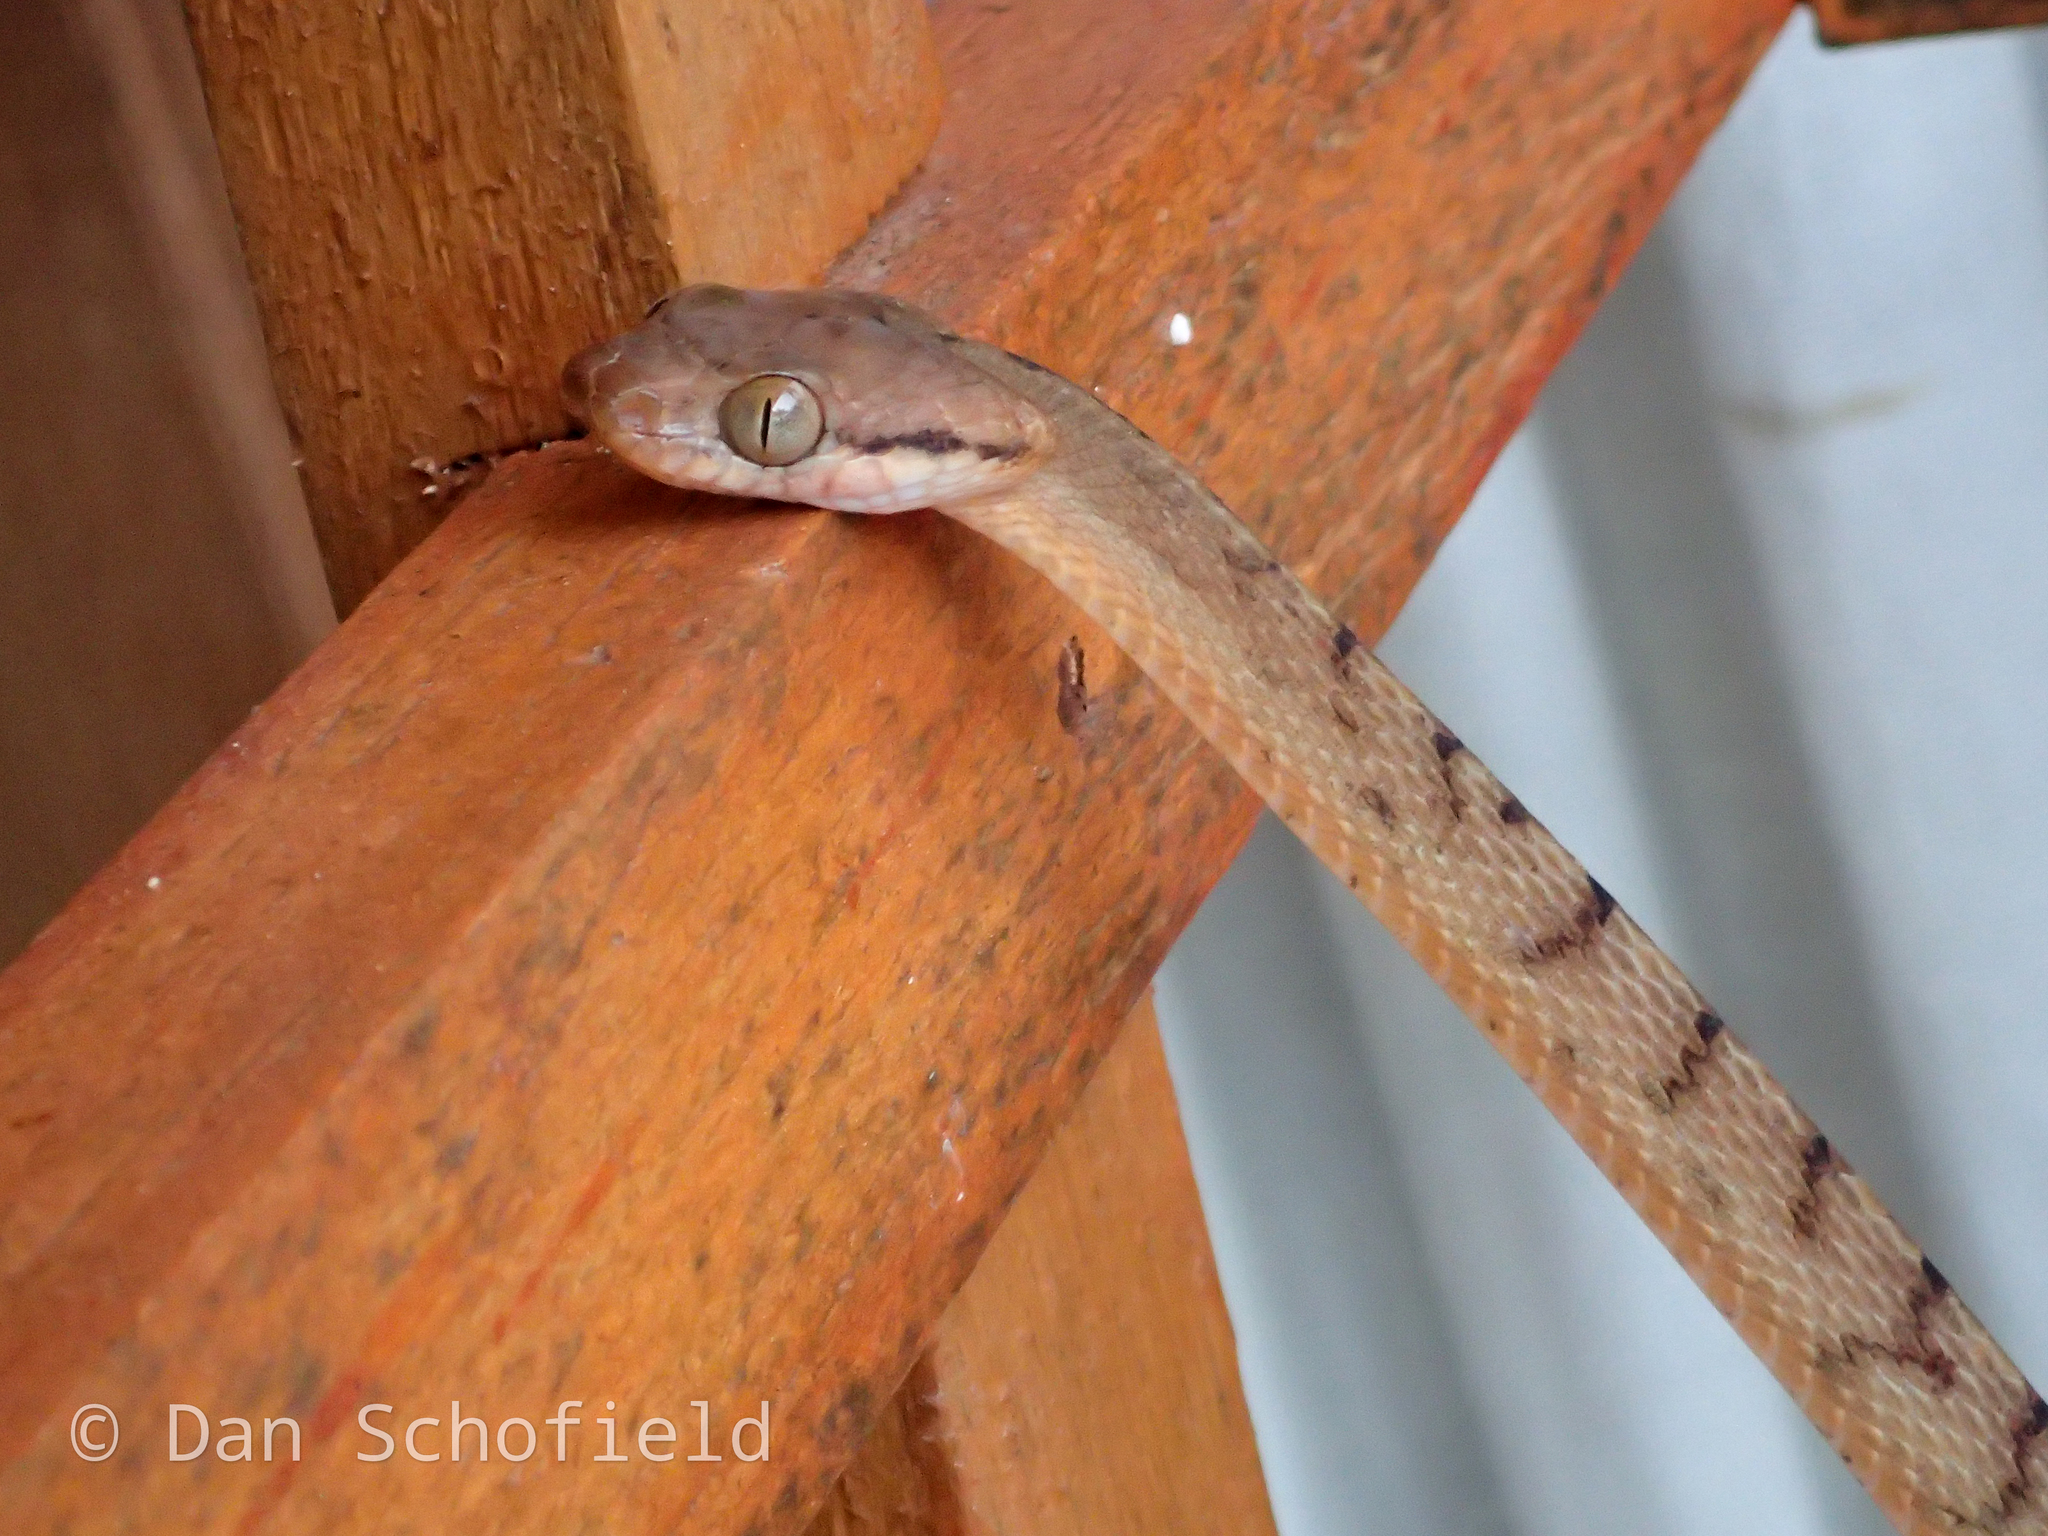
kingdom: Animalia
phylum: Chordata
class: Squamata
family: Colubridae
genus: Boiga
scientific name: Boiga irregularis
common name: Brown tree snake
